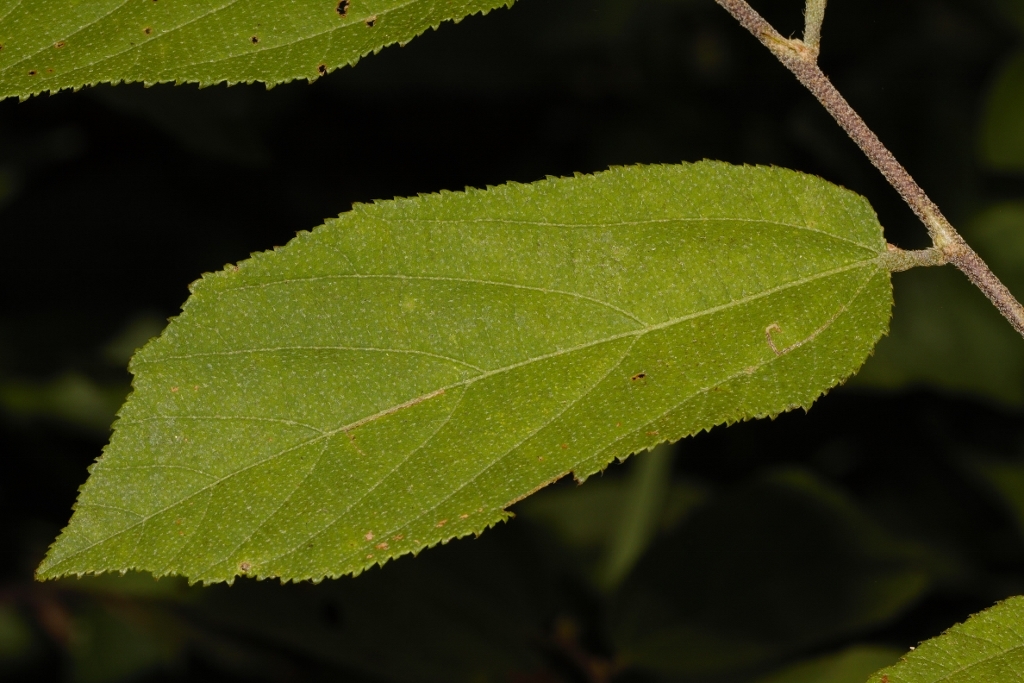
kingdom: Plantae
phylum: Tracheophyta
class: Magnoliopsida
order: Malvales
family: Malvaceae
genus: Grewia
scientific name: Grewia flavescens
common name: Sandpaper raisin
